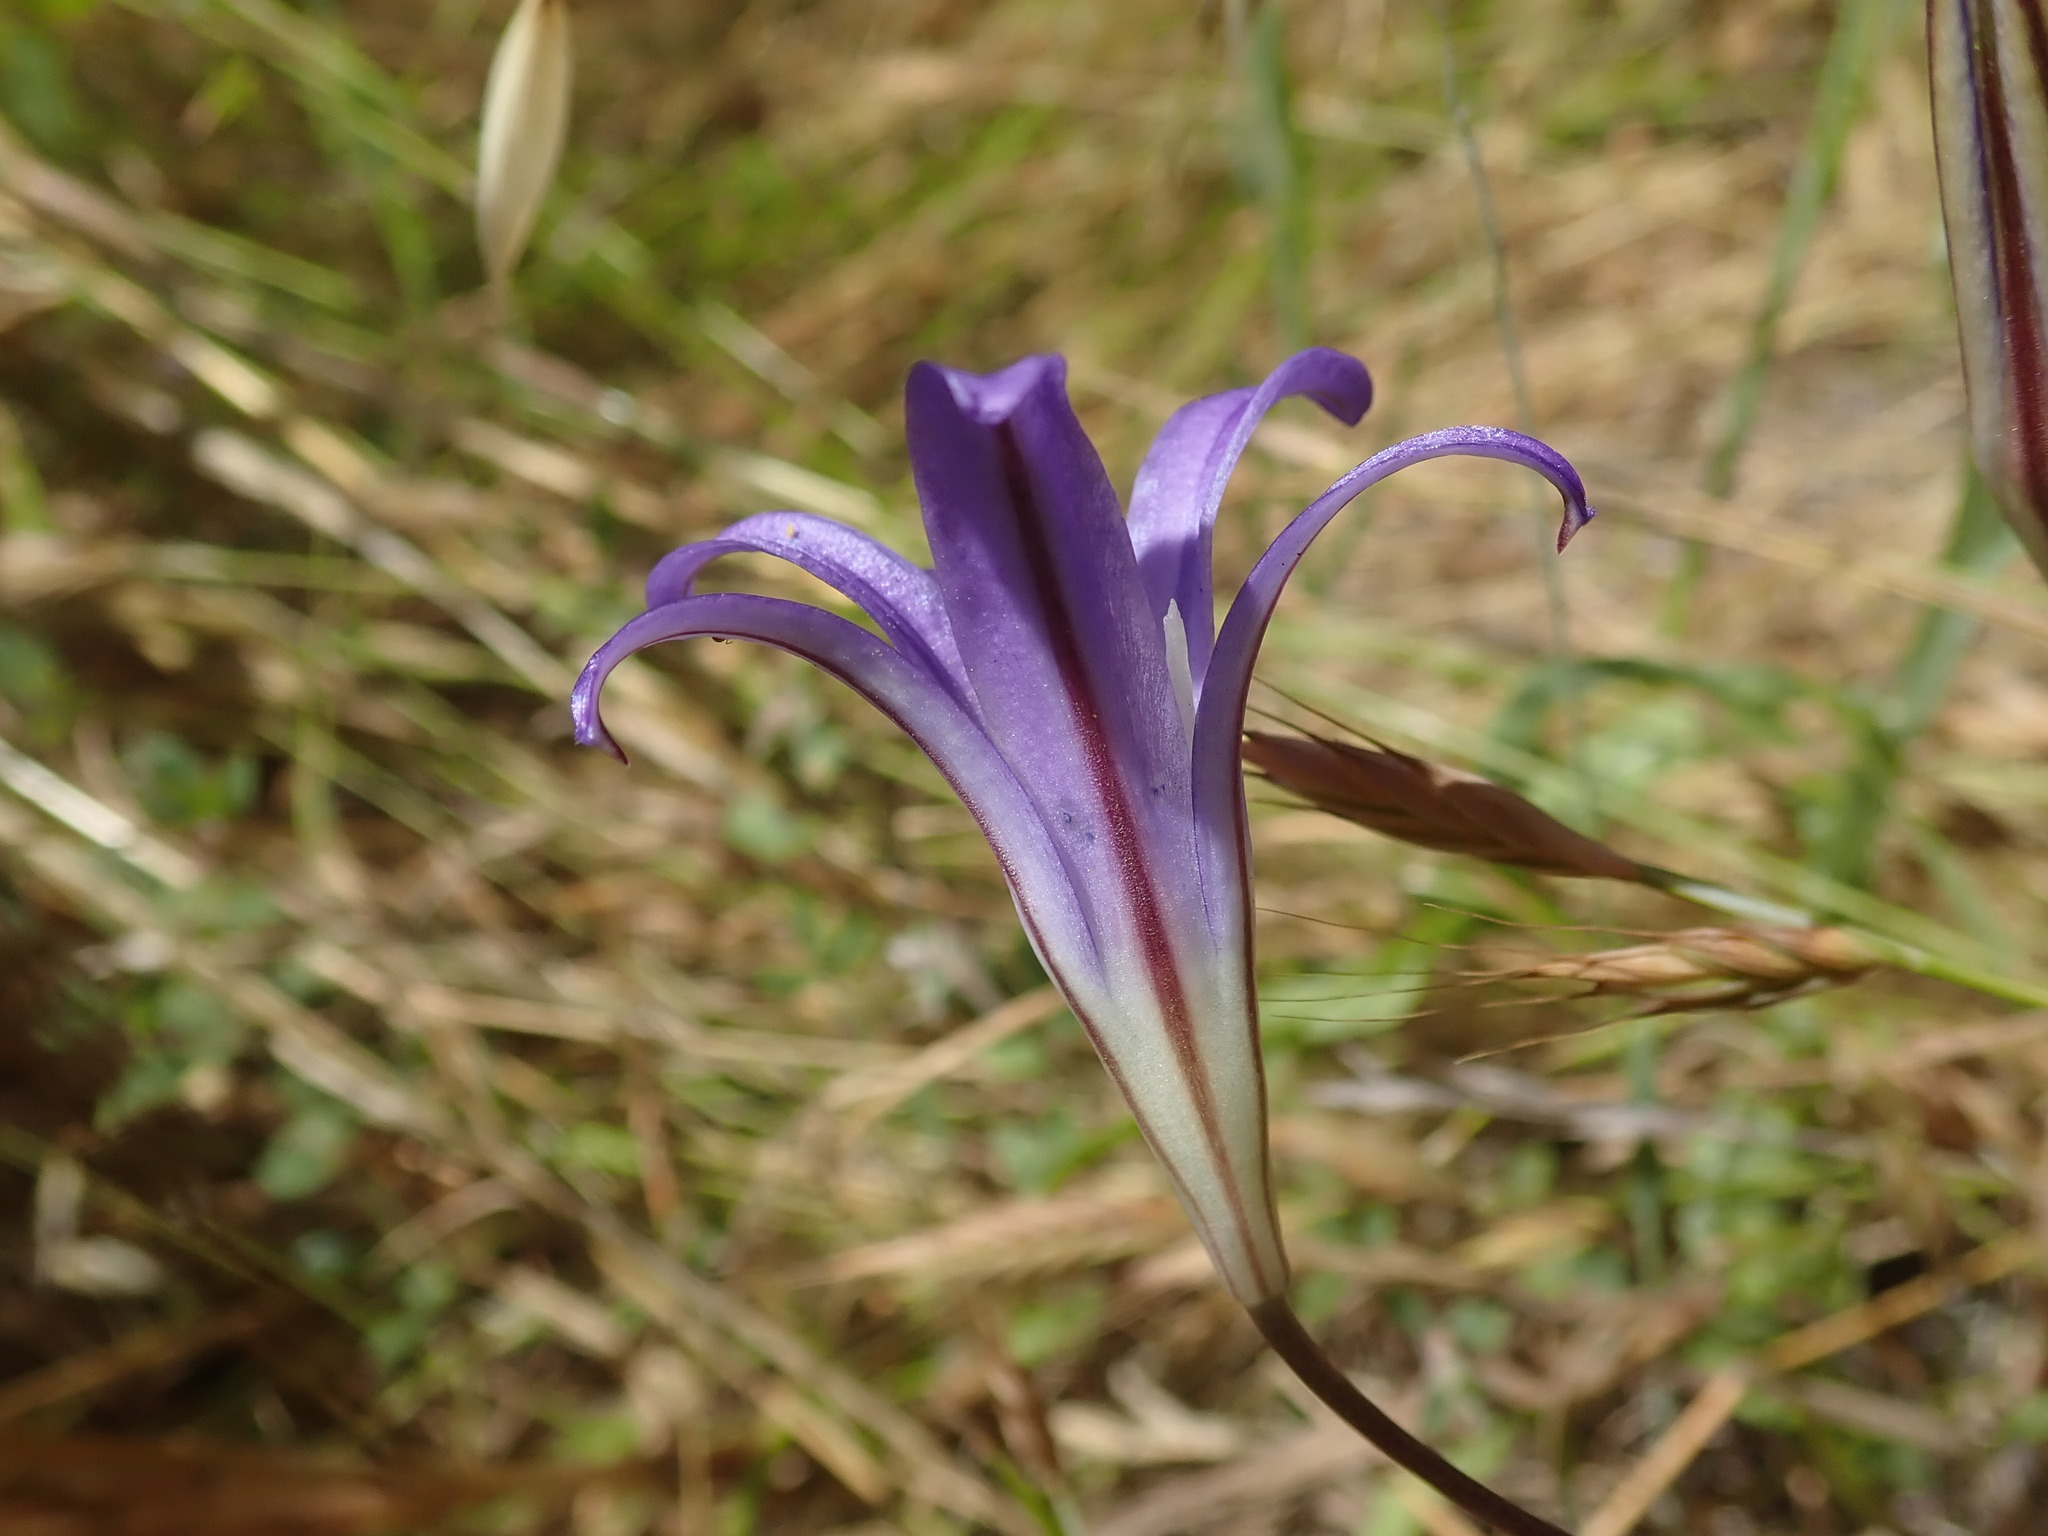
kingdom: Plantae
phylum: Tracheophyta
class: Liliopsida
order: Asparagales
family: Asparagaceae
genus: Brodiaea
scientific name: Brodiaea elegans
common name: Elegant cluster-lily
